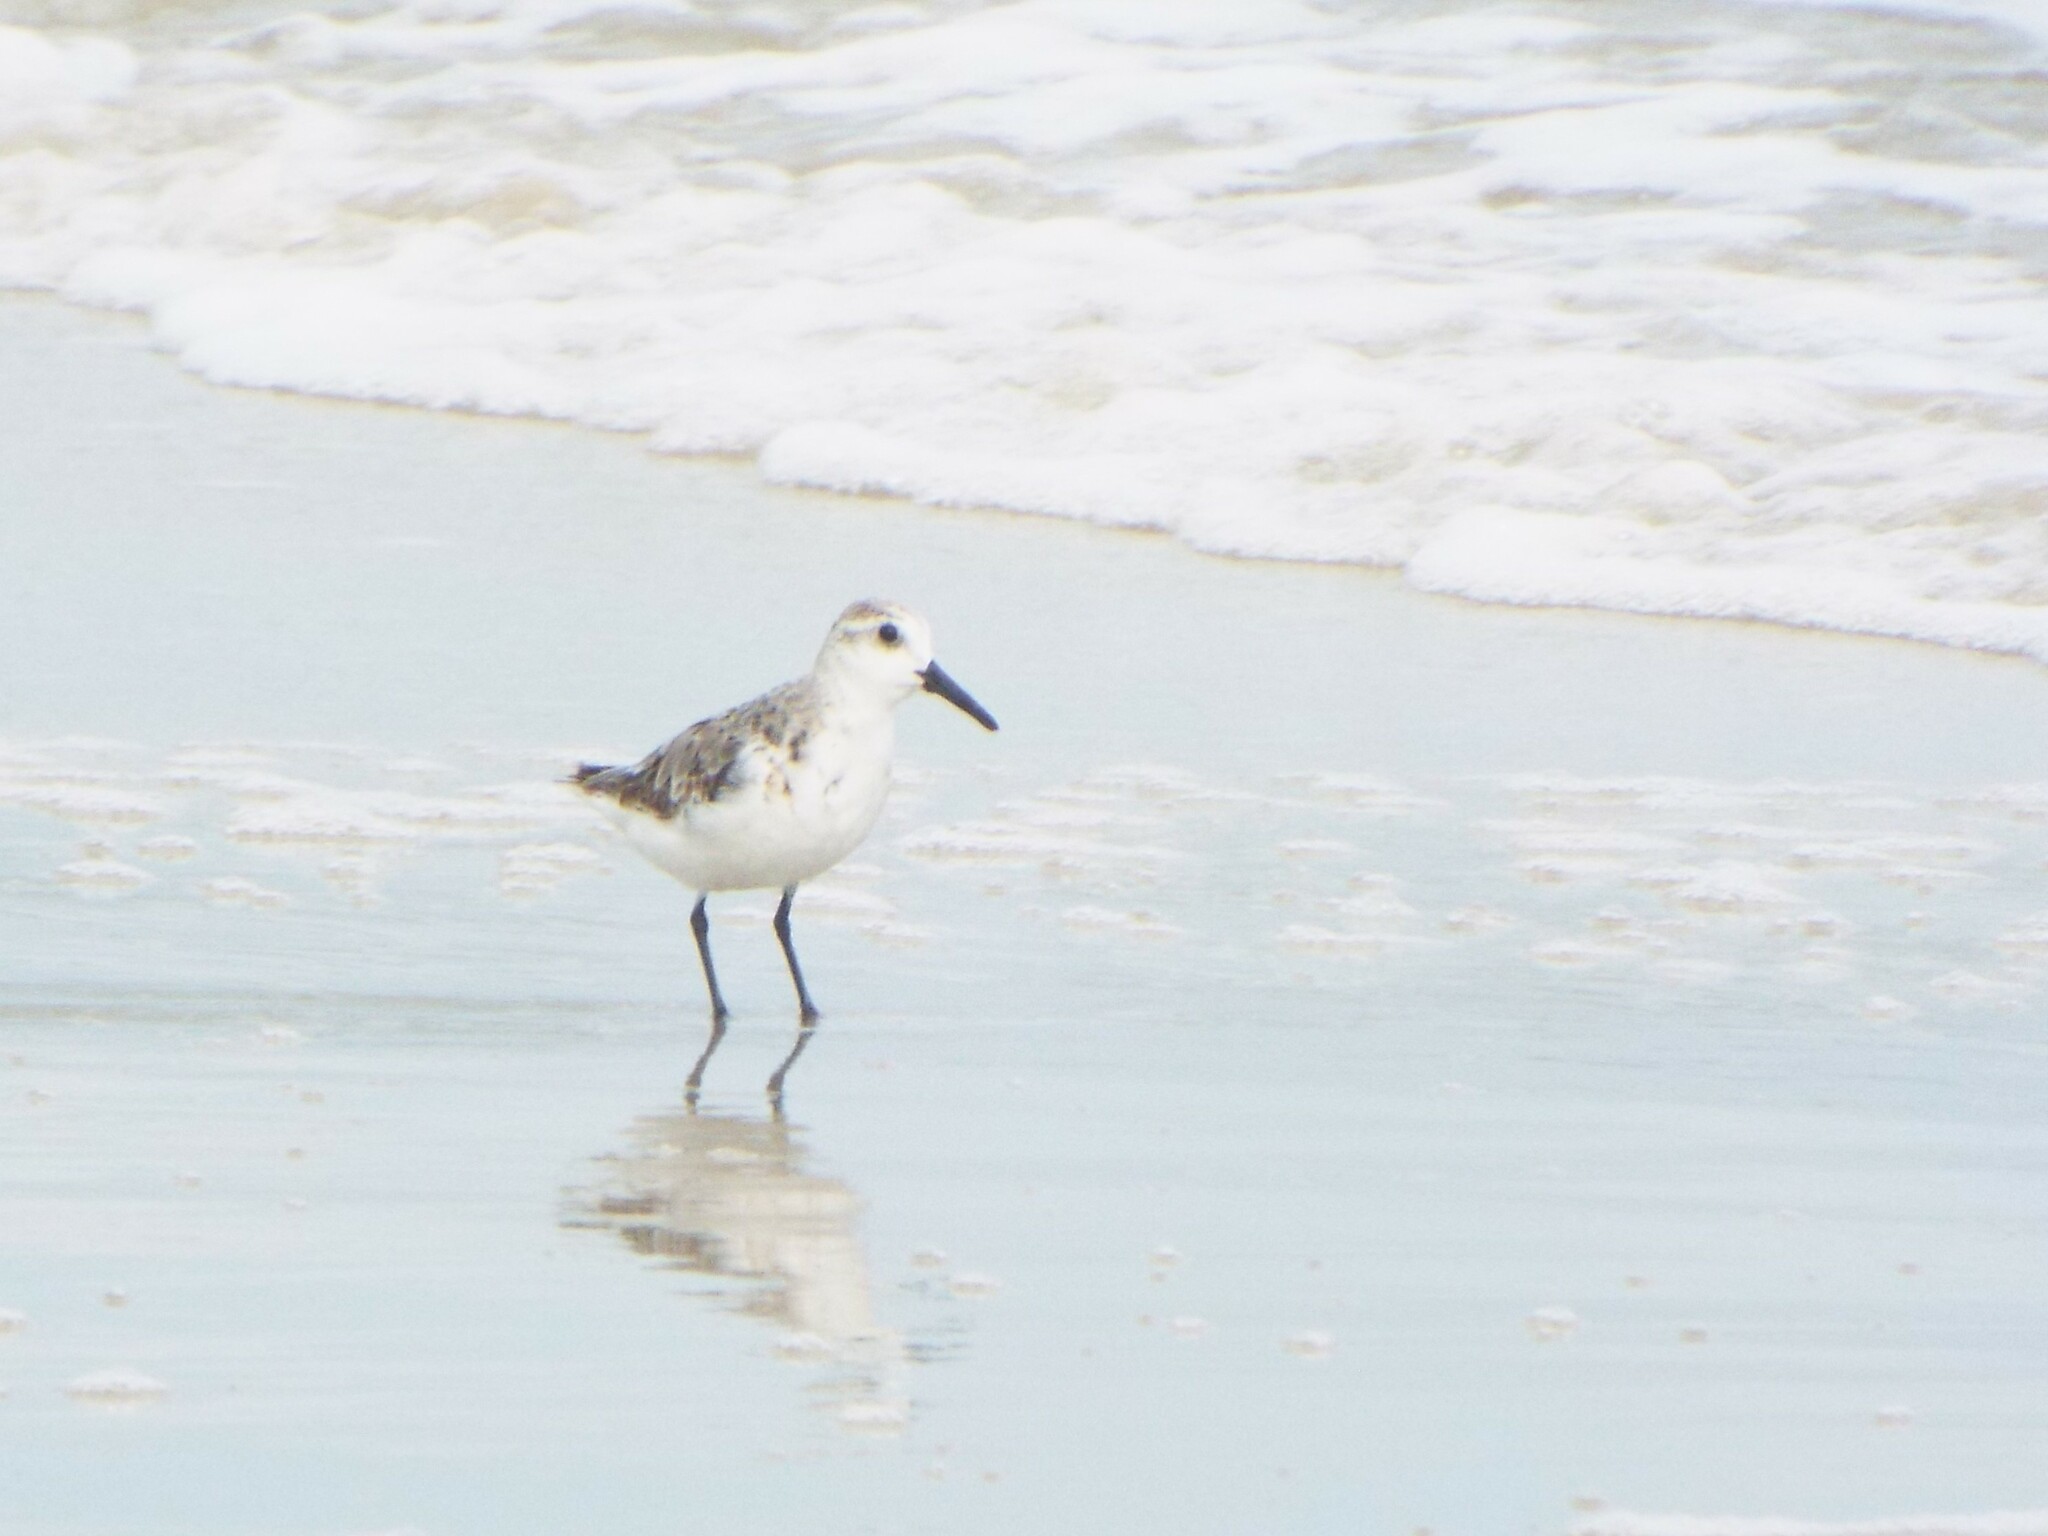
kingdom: Animalia
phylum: Chordata
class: Aves
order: Charadriiformes
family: Scolopacidae
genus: Calidris
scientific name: Calidris alba
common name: Sanderling
